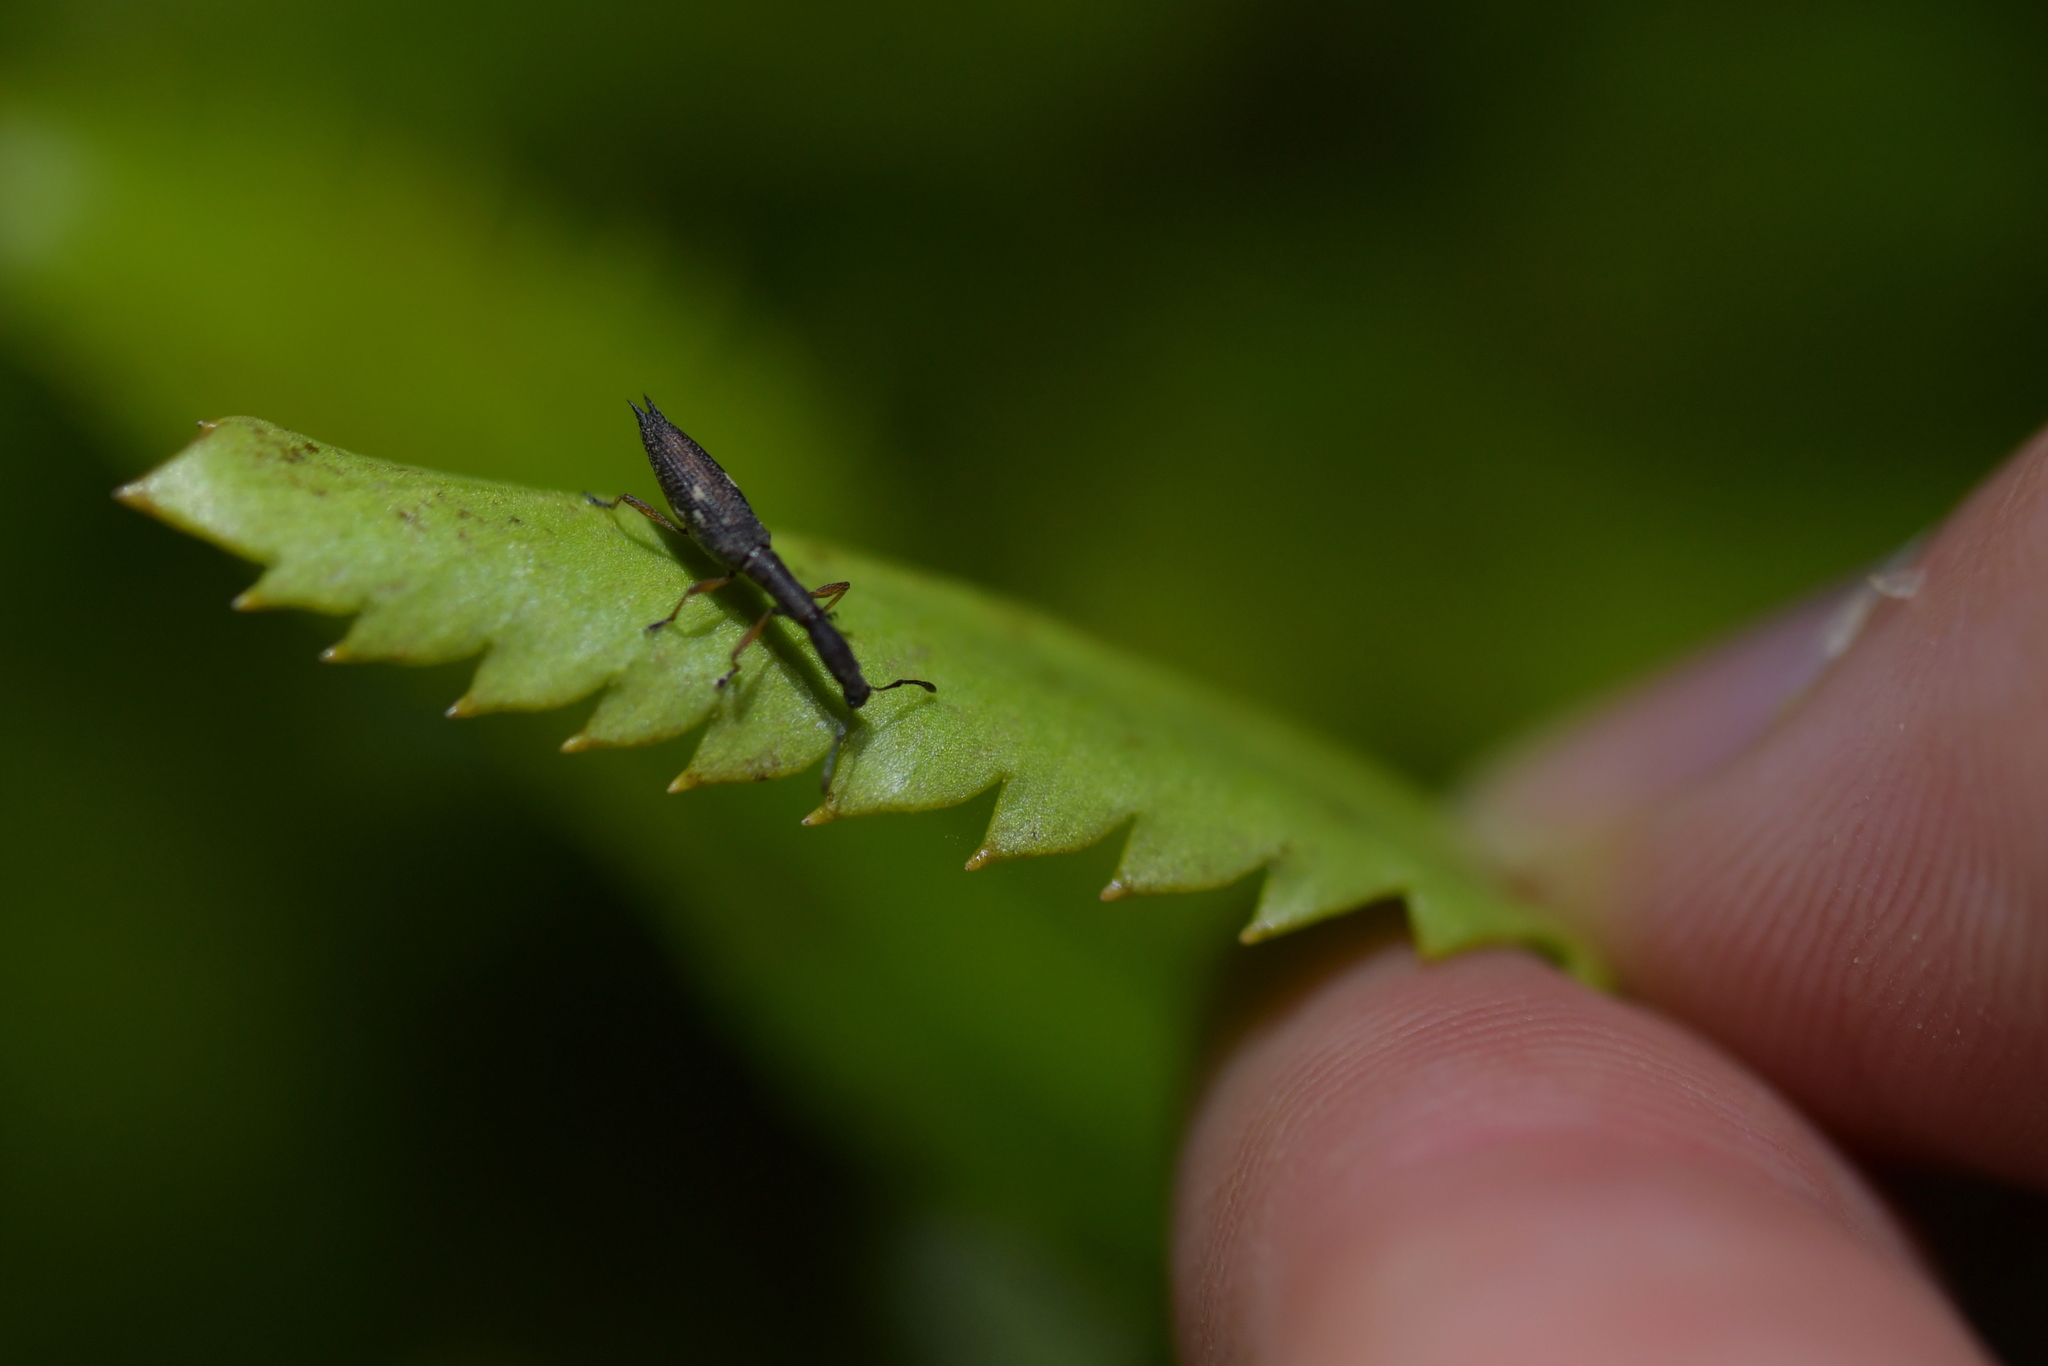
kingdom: Animalia
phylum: Arthropoda
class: Insecta
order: Coleoptera
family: Curculionidae
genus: Rhadinosomus
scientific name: Rhadinosomus acuminatus
